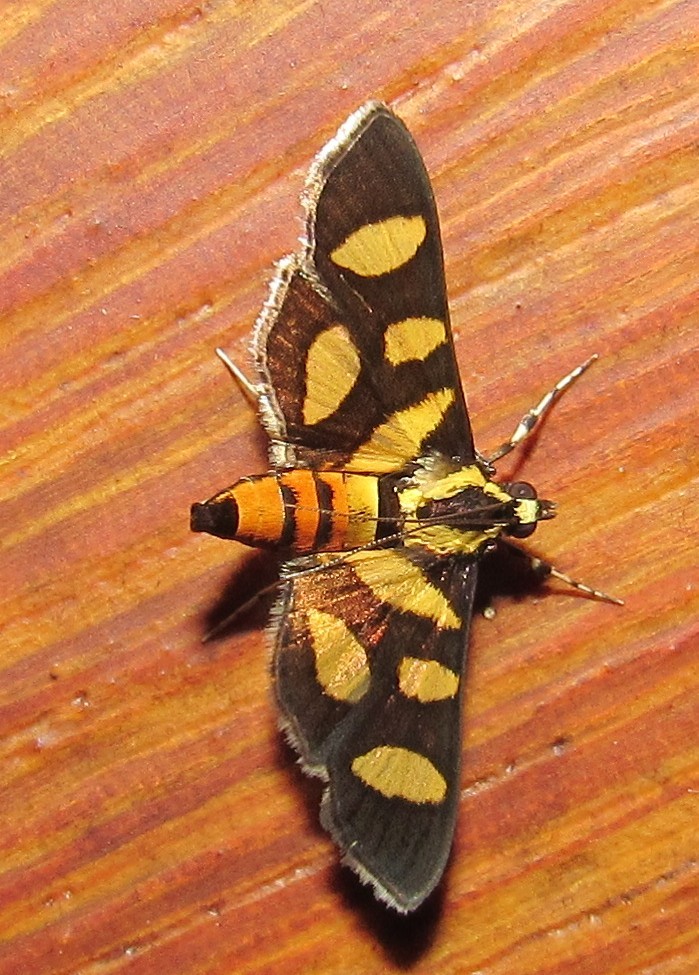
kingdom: Animalia
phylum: Arthropoda
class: Insecta
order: Lepidoptera
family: Crambidae
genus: Syngamia
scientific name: Syngamia florella
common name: Orange-spotted flower moth
